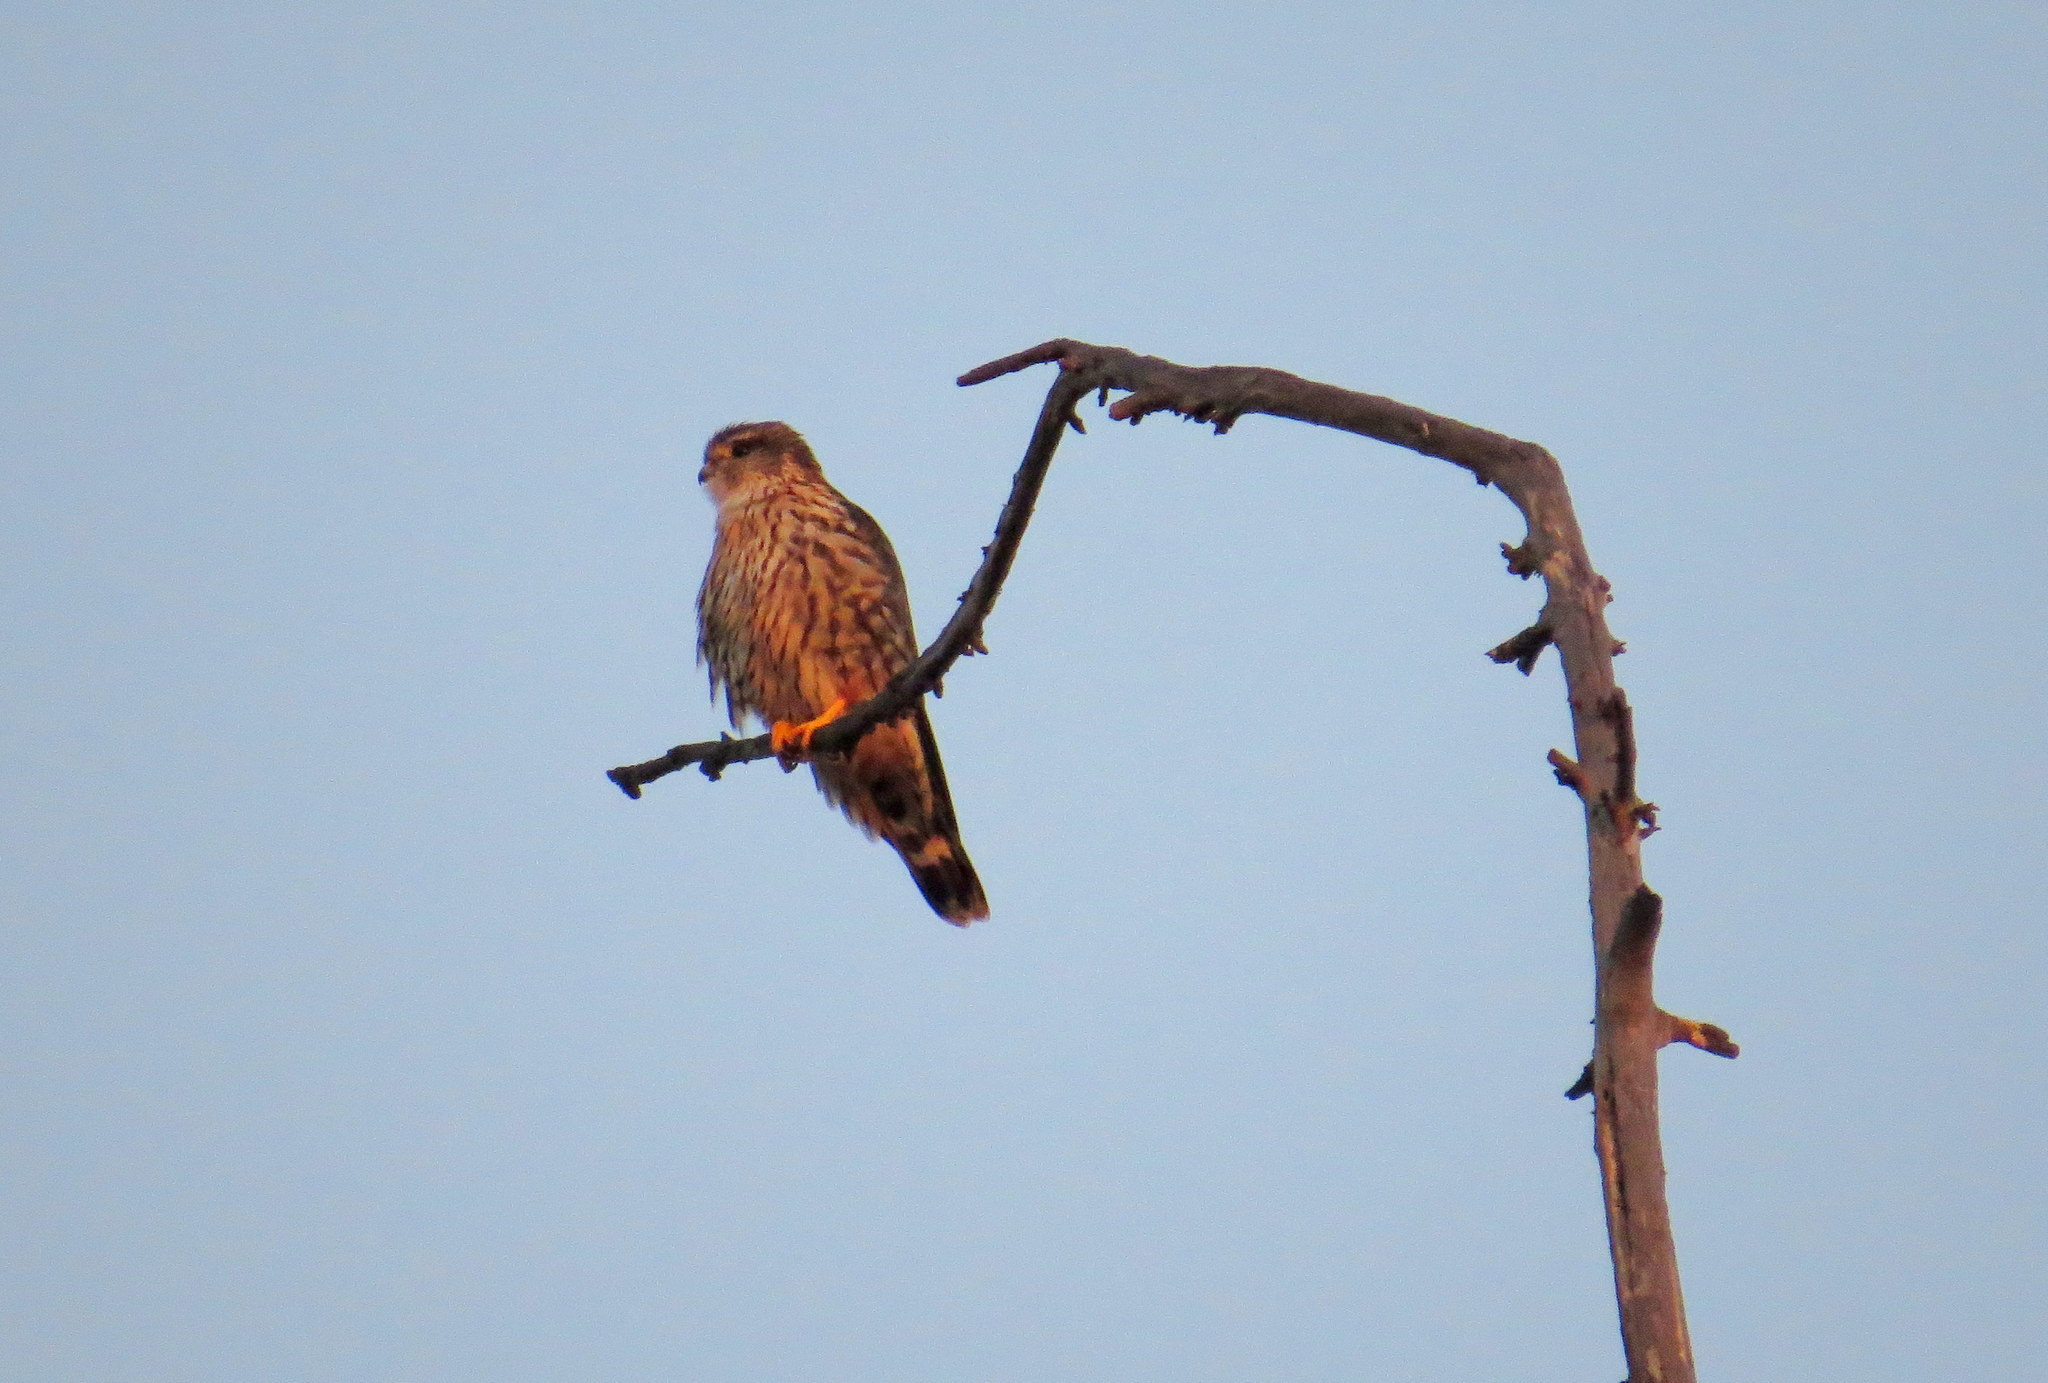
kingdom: Animalia
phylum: Chordata
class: Aves
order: Falconiformes
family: Falconidae
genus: Falco
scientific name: Falco columbarius
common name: Merlin
